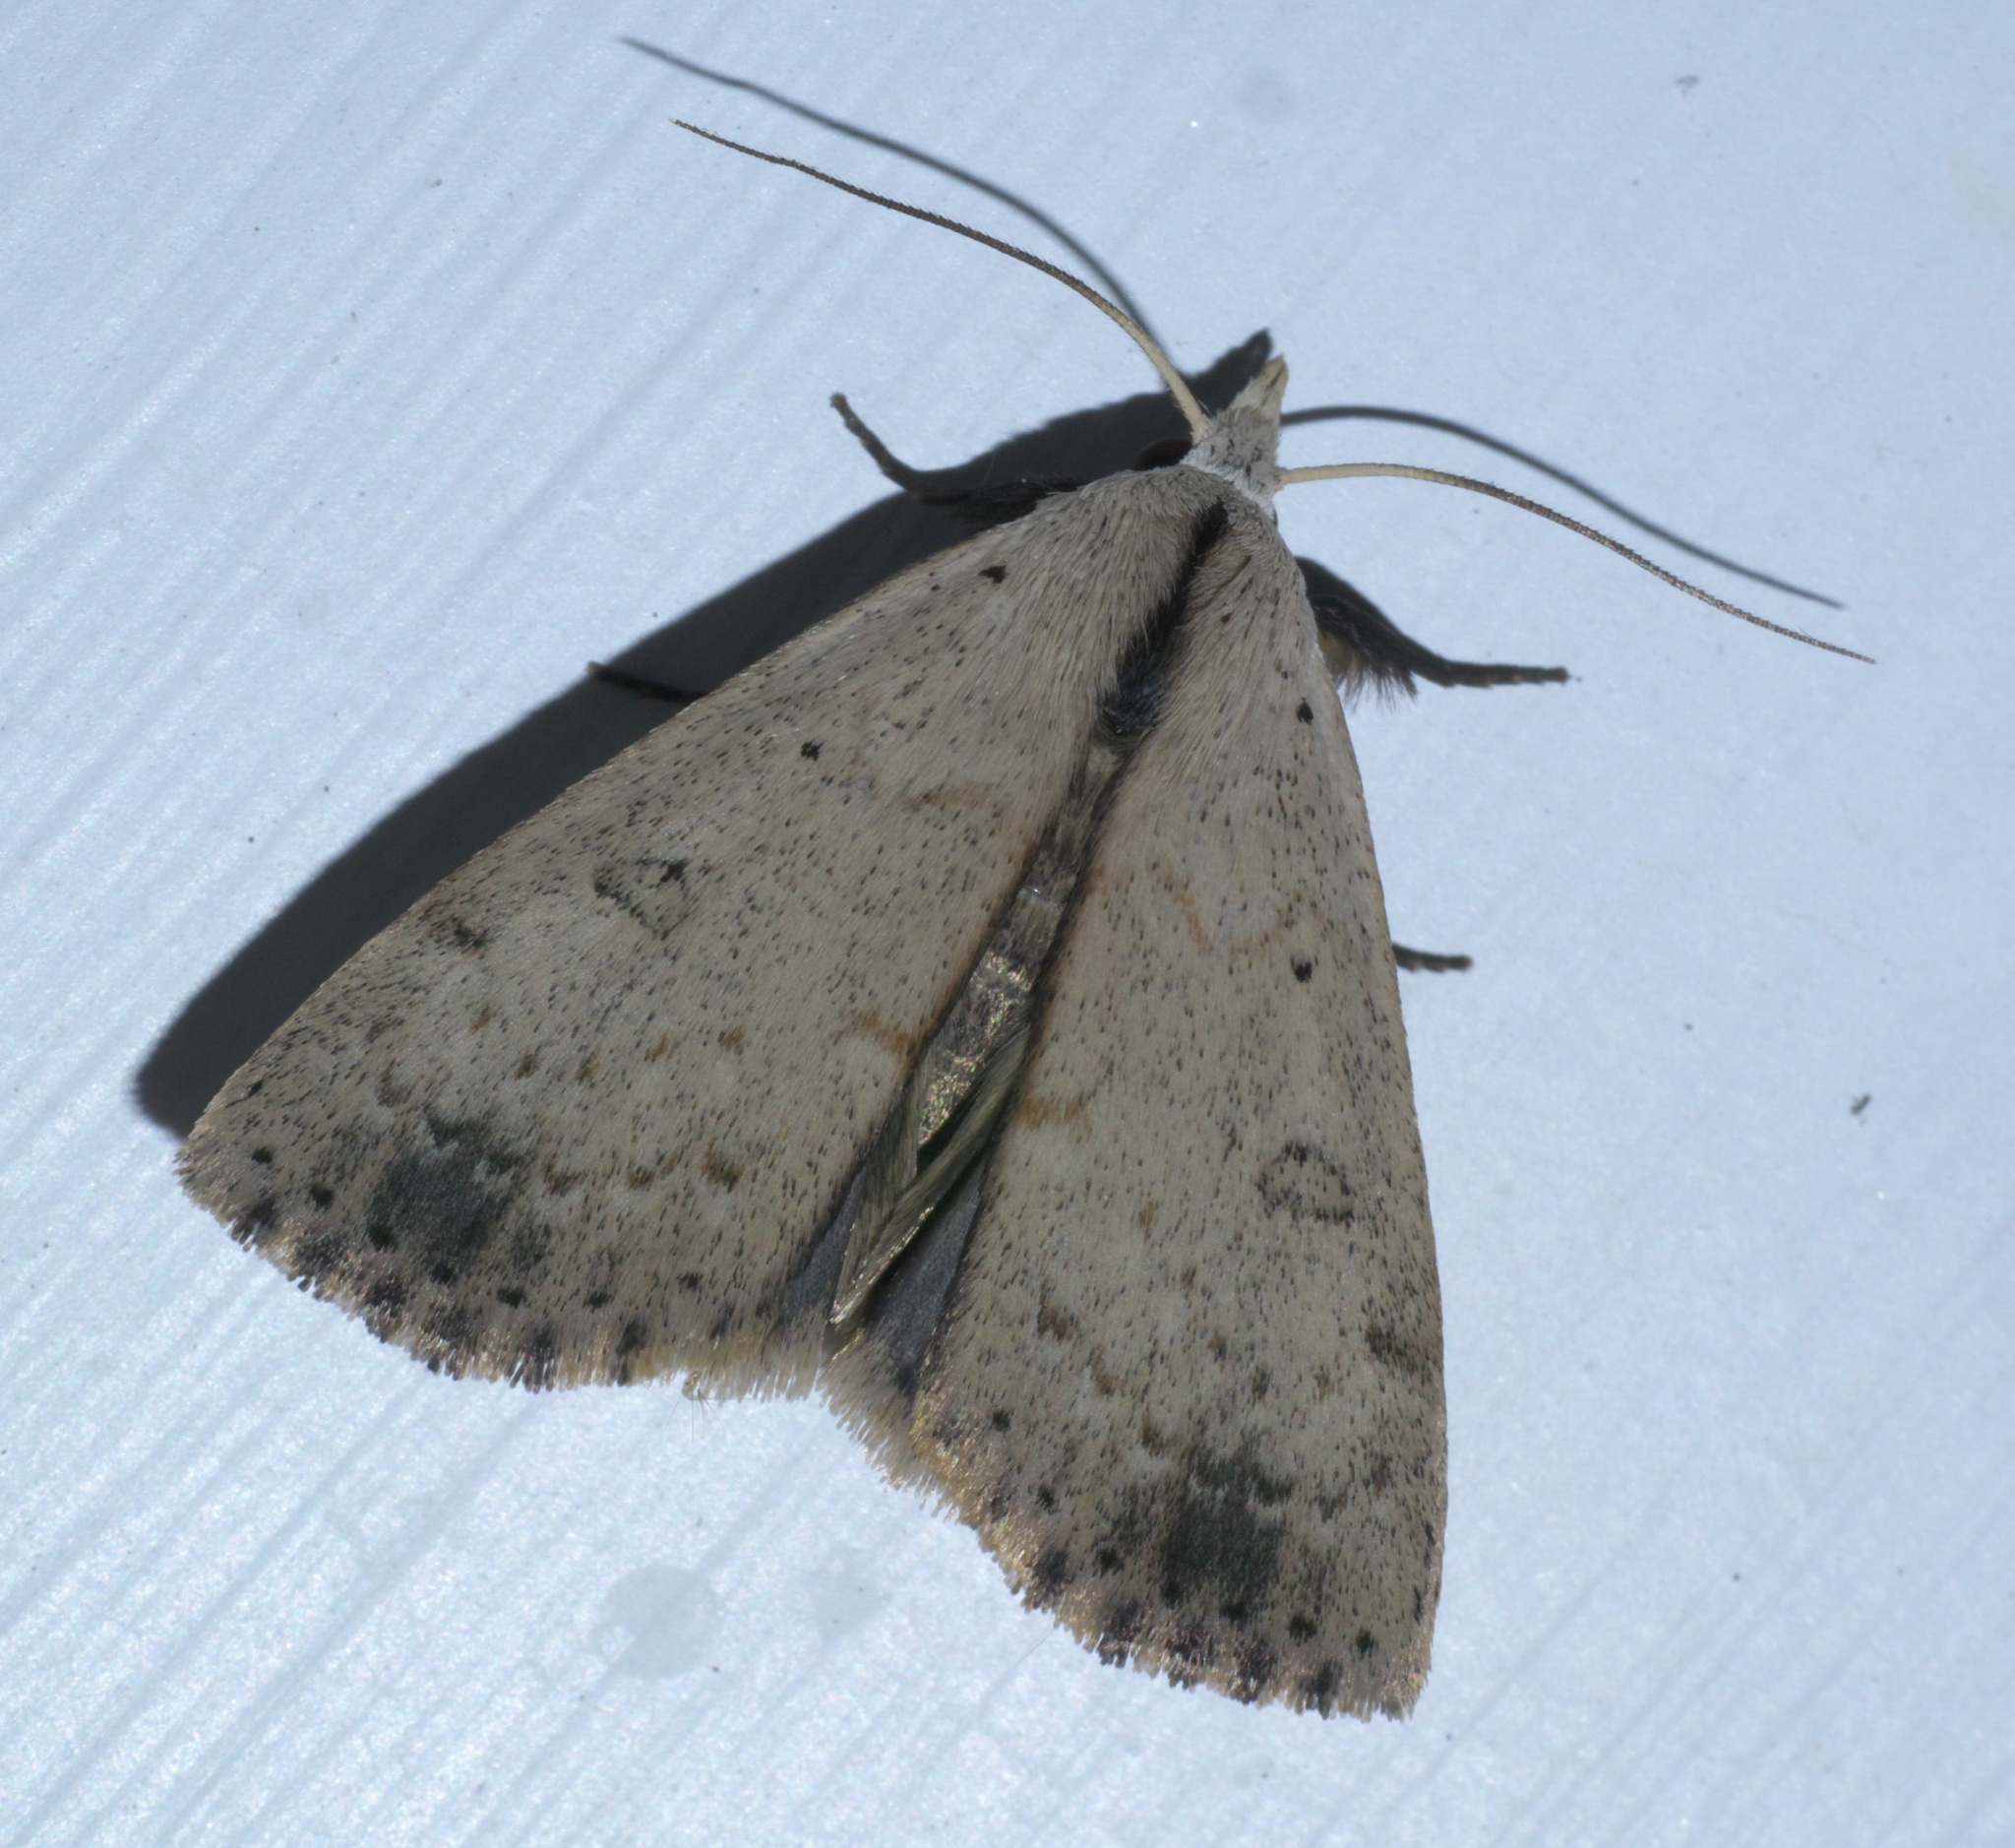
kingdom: Animalia
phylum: Arthropoda
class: Insecta
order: Lepidoptera
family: Erebidae
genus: Scolecocampa
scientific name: Scolecocampa liburna
